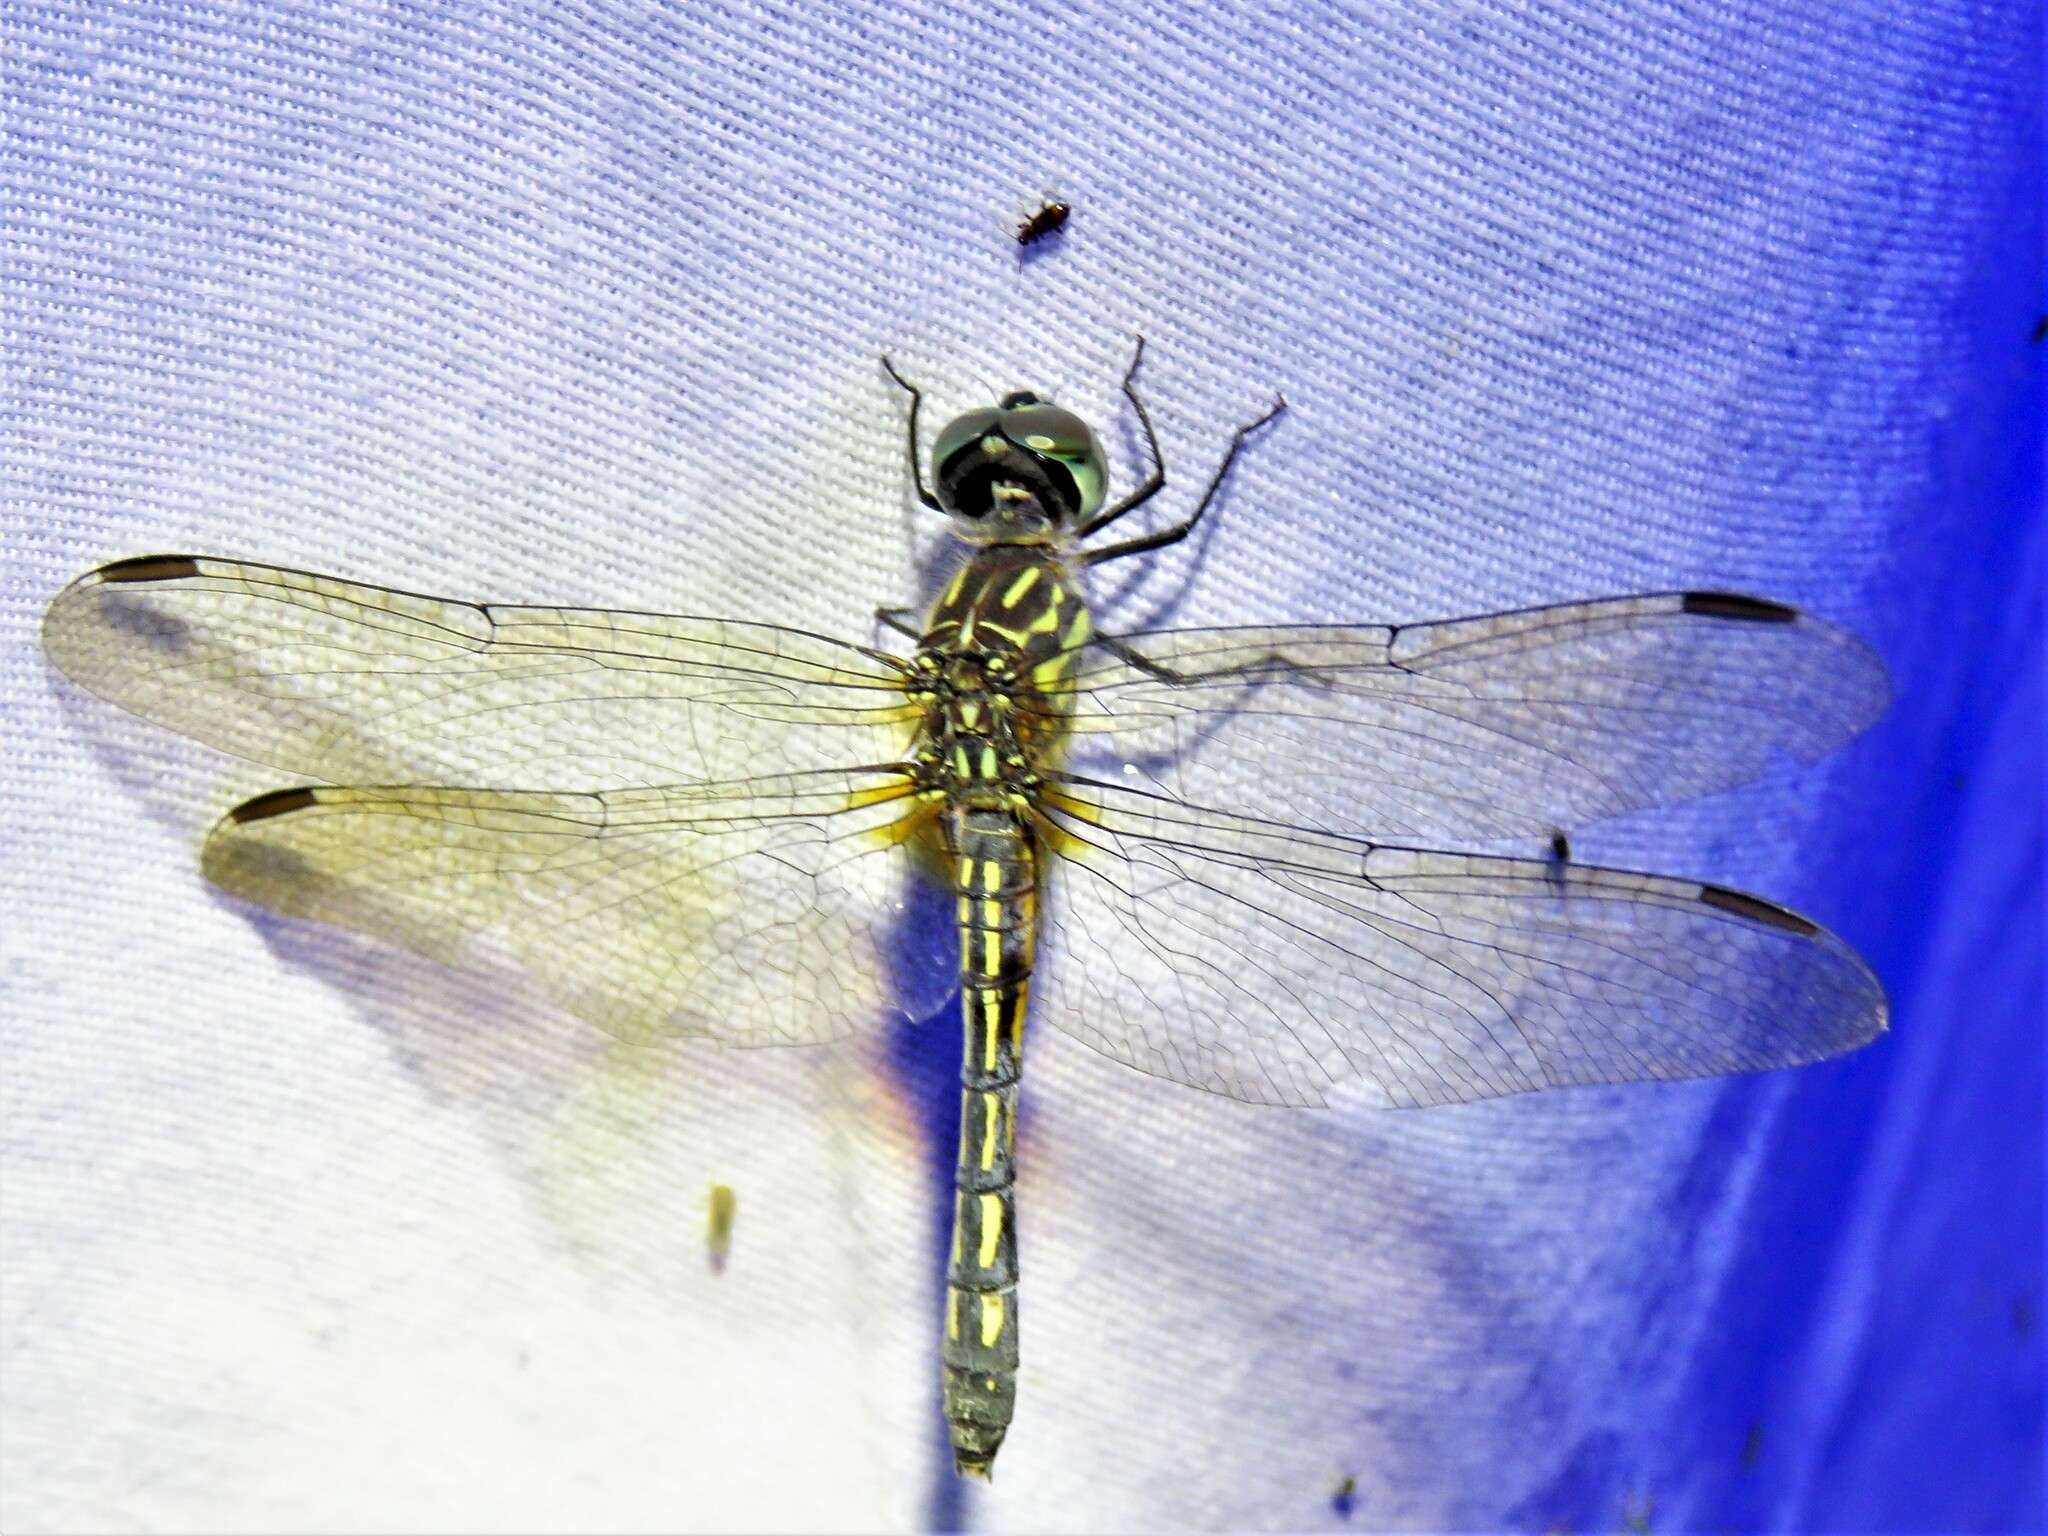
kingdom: Animalia
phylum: Arthropoda
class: Insecta
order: Odonata
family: Libellulidae
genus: Pachydiplax
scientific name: Pachydiplax longipennis
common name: Blue dasher
